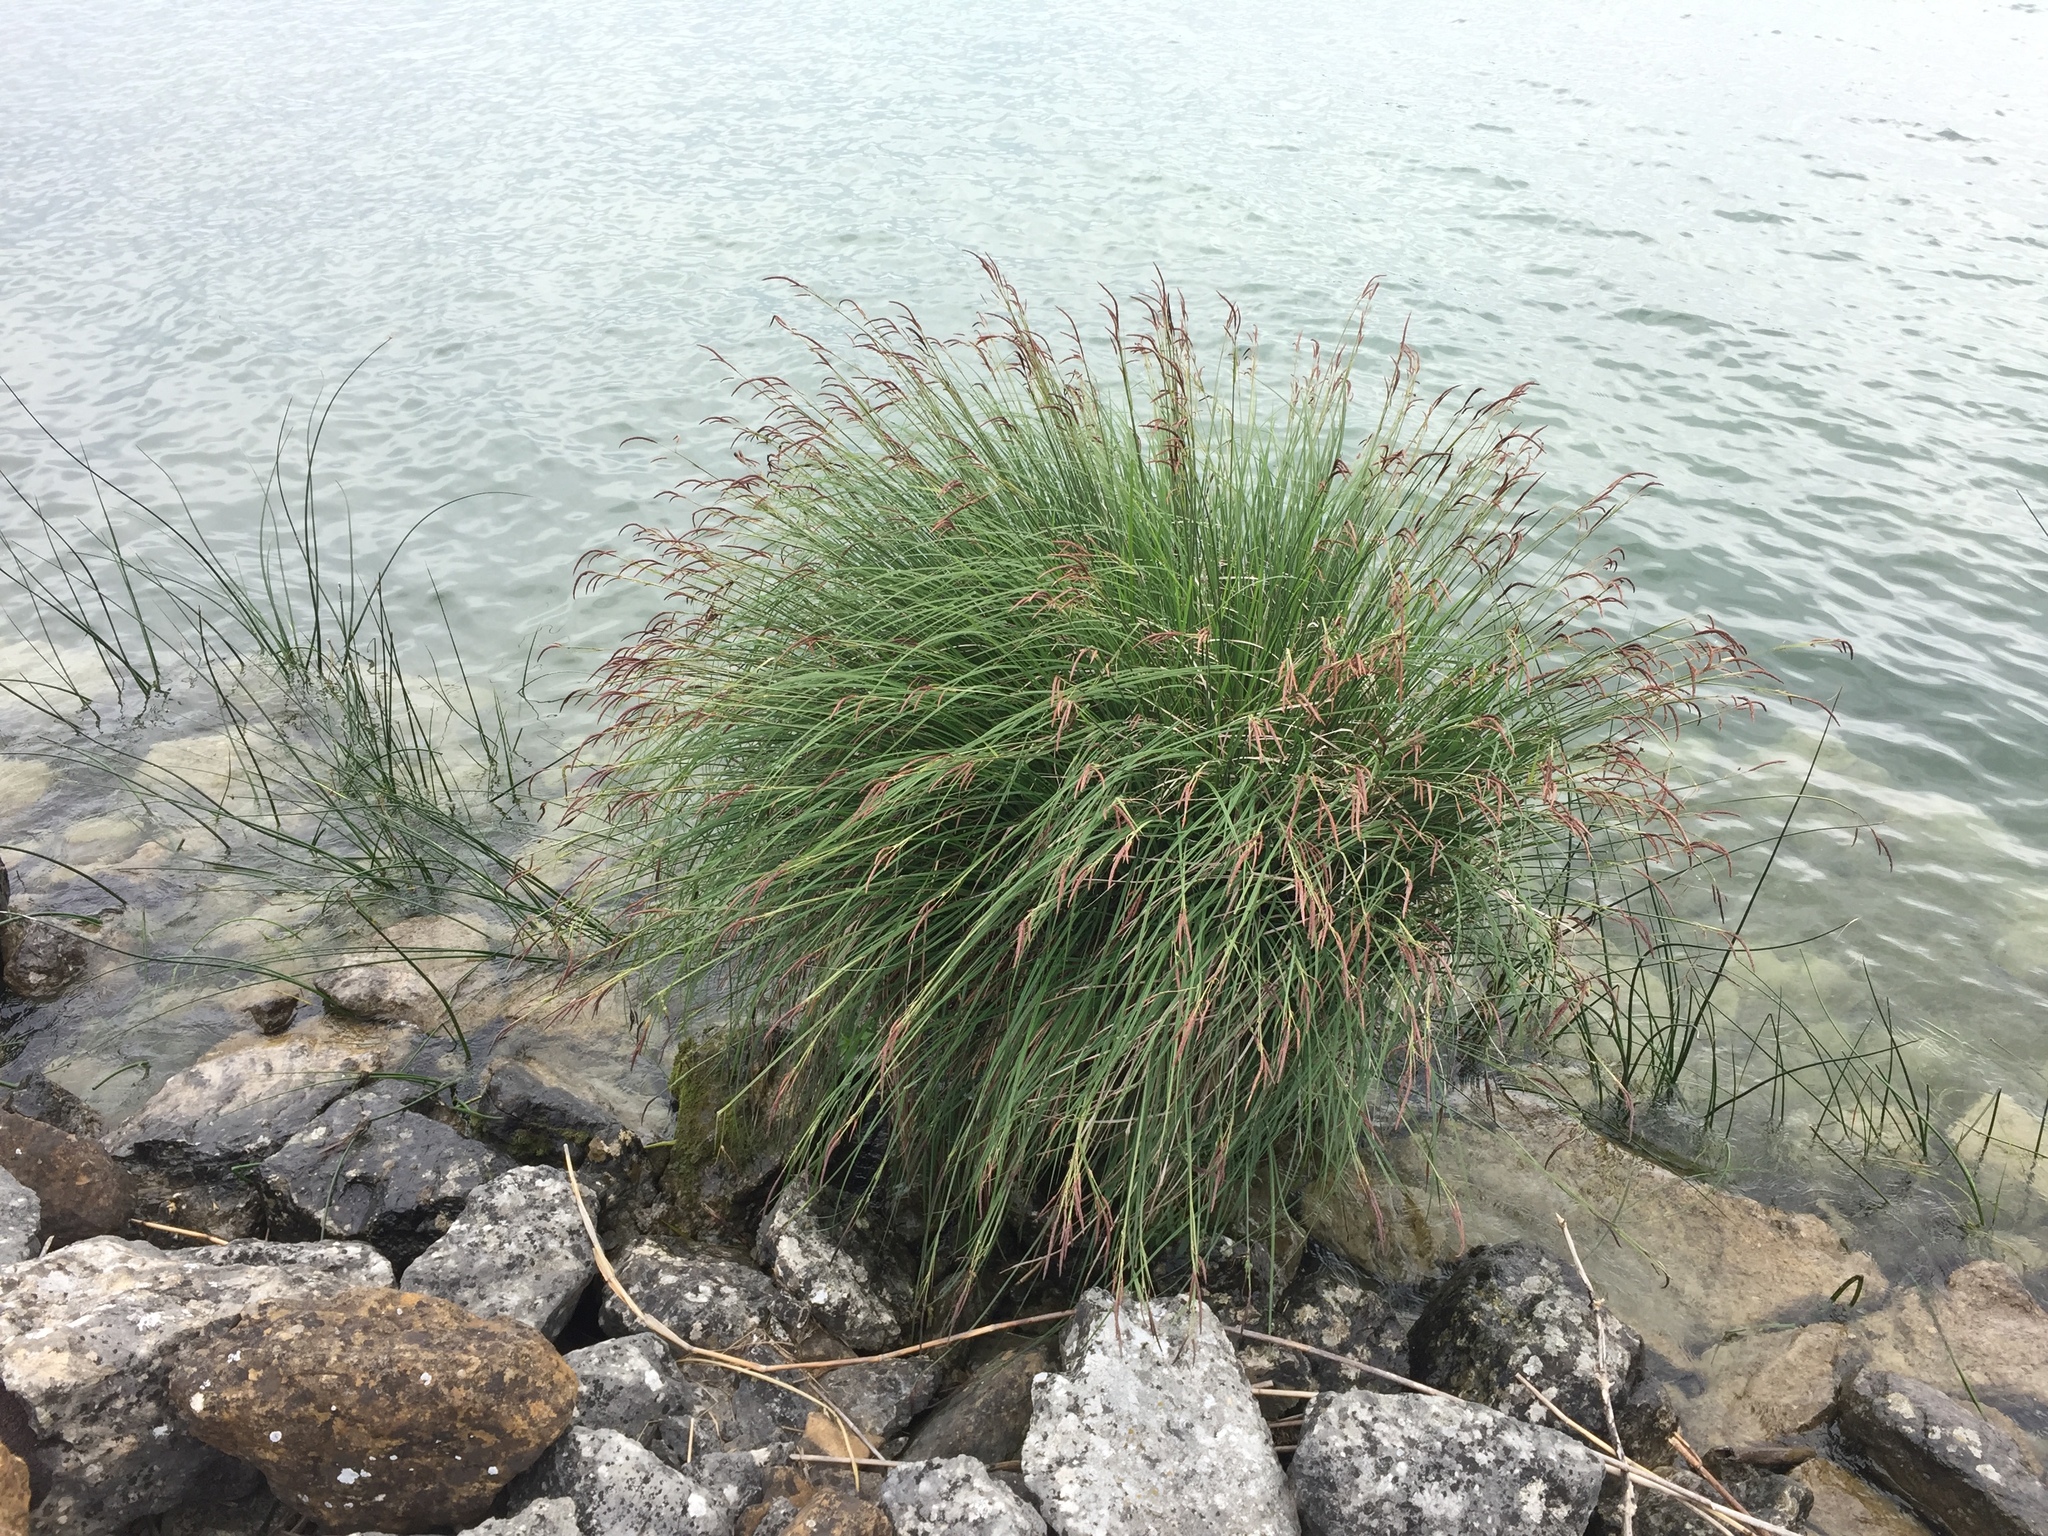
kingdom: Plantae
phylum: Tracheophyta
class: Liliopsida
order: Poales
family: Cyperaceae
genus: Carex
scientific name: Carex elata
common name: Tufted sedge
